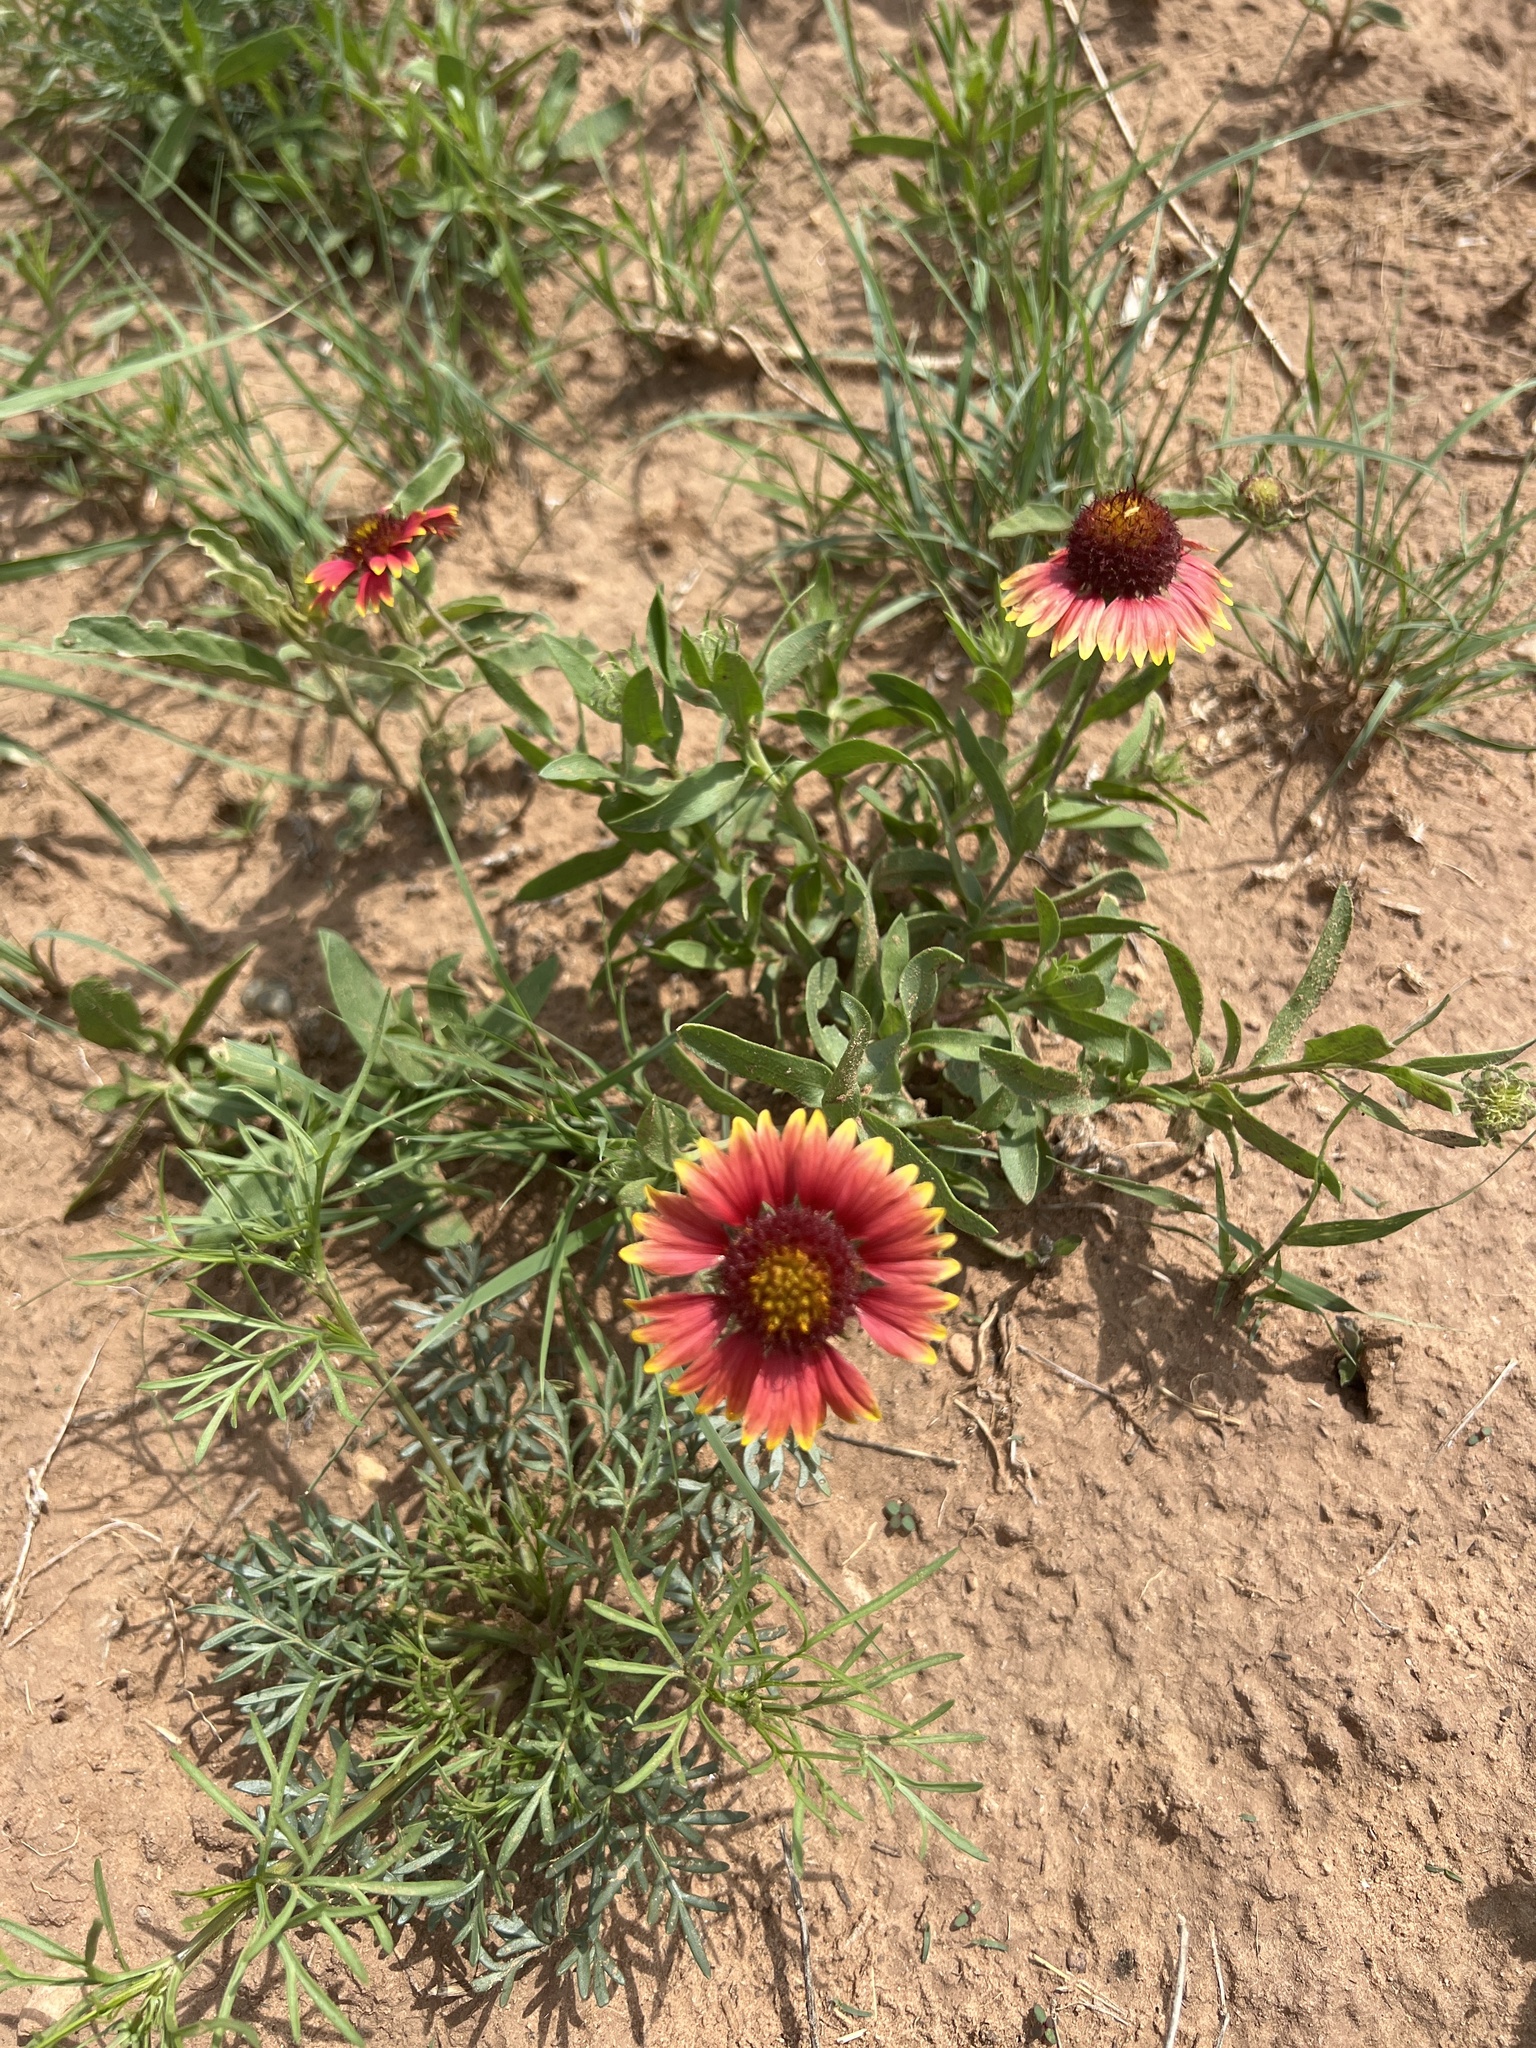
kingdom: Plantae
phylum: Tracheophyta
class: Magnoliopsida
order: Asterales
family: Asteraceae
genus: Gaillardia
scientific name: Gaillardia pulchella
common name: Firewheel
